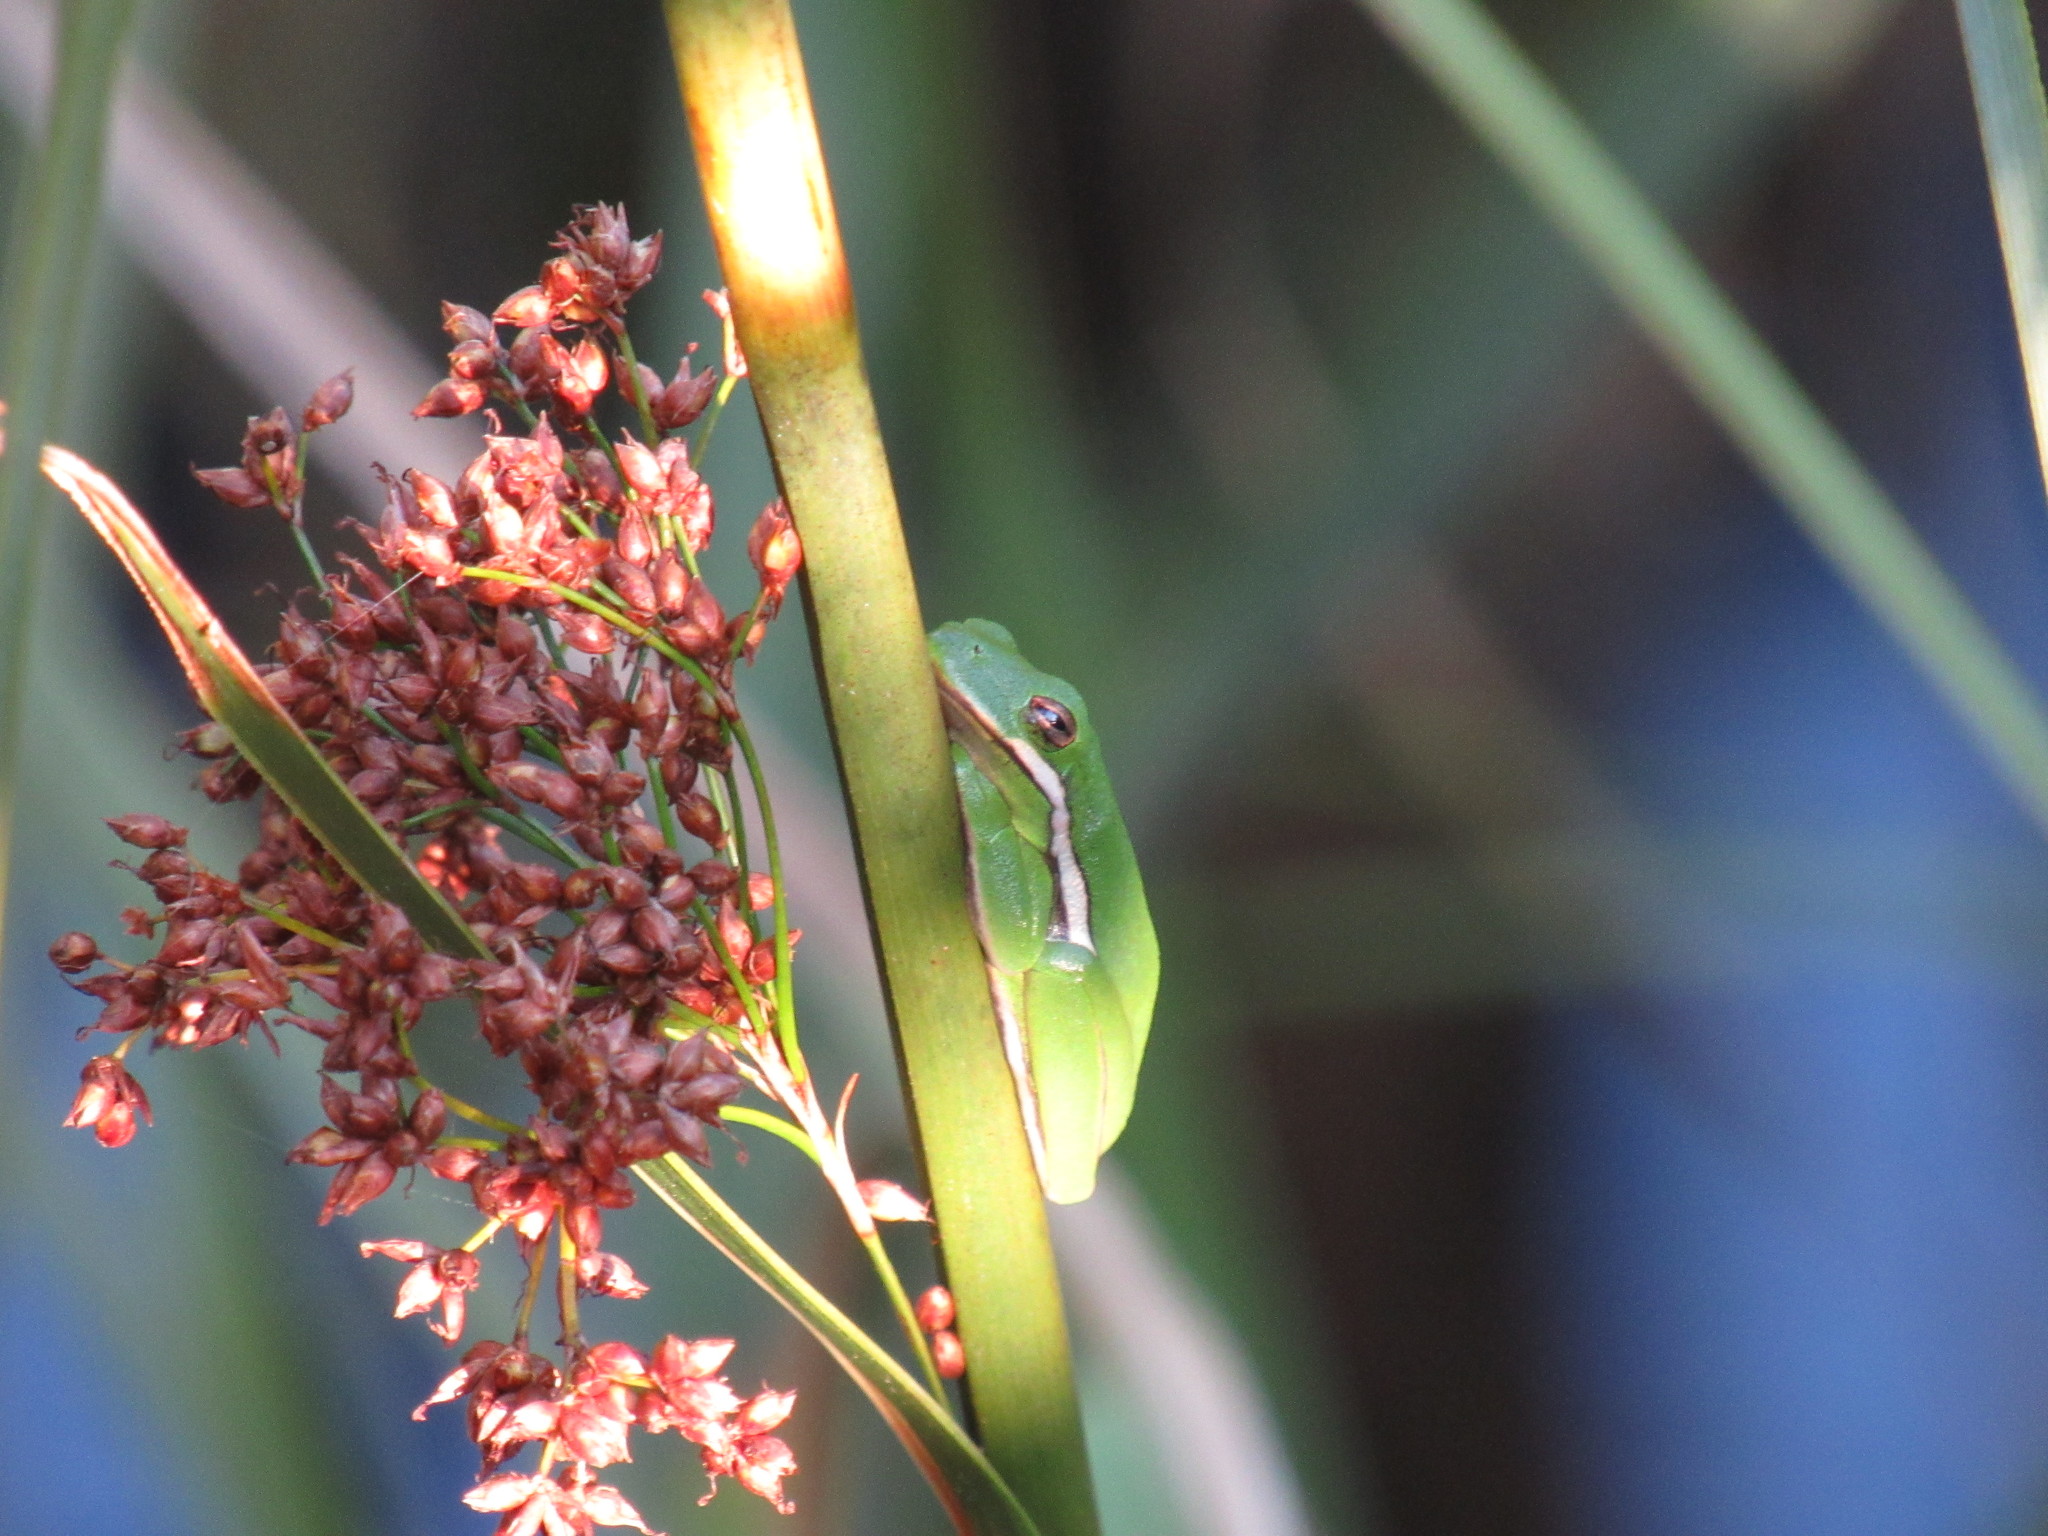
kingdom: Animalia
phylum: Chordata
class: Amphibia
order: Anura
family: Hylidae
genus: Dryophytes
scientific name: Dryophytes cinereus
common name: Green treefrog
